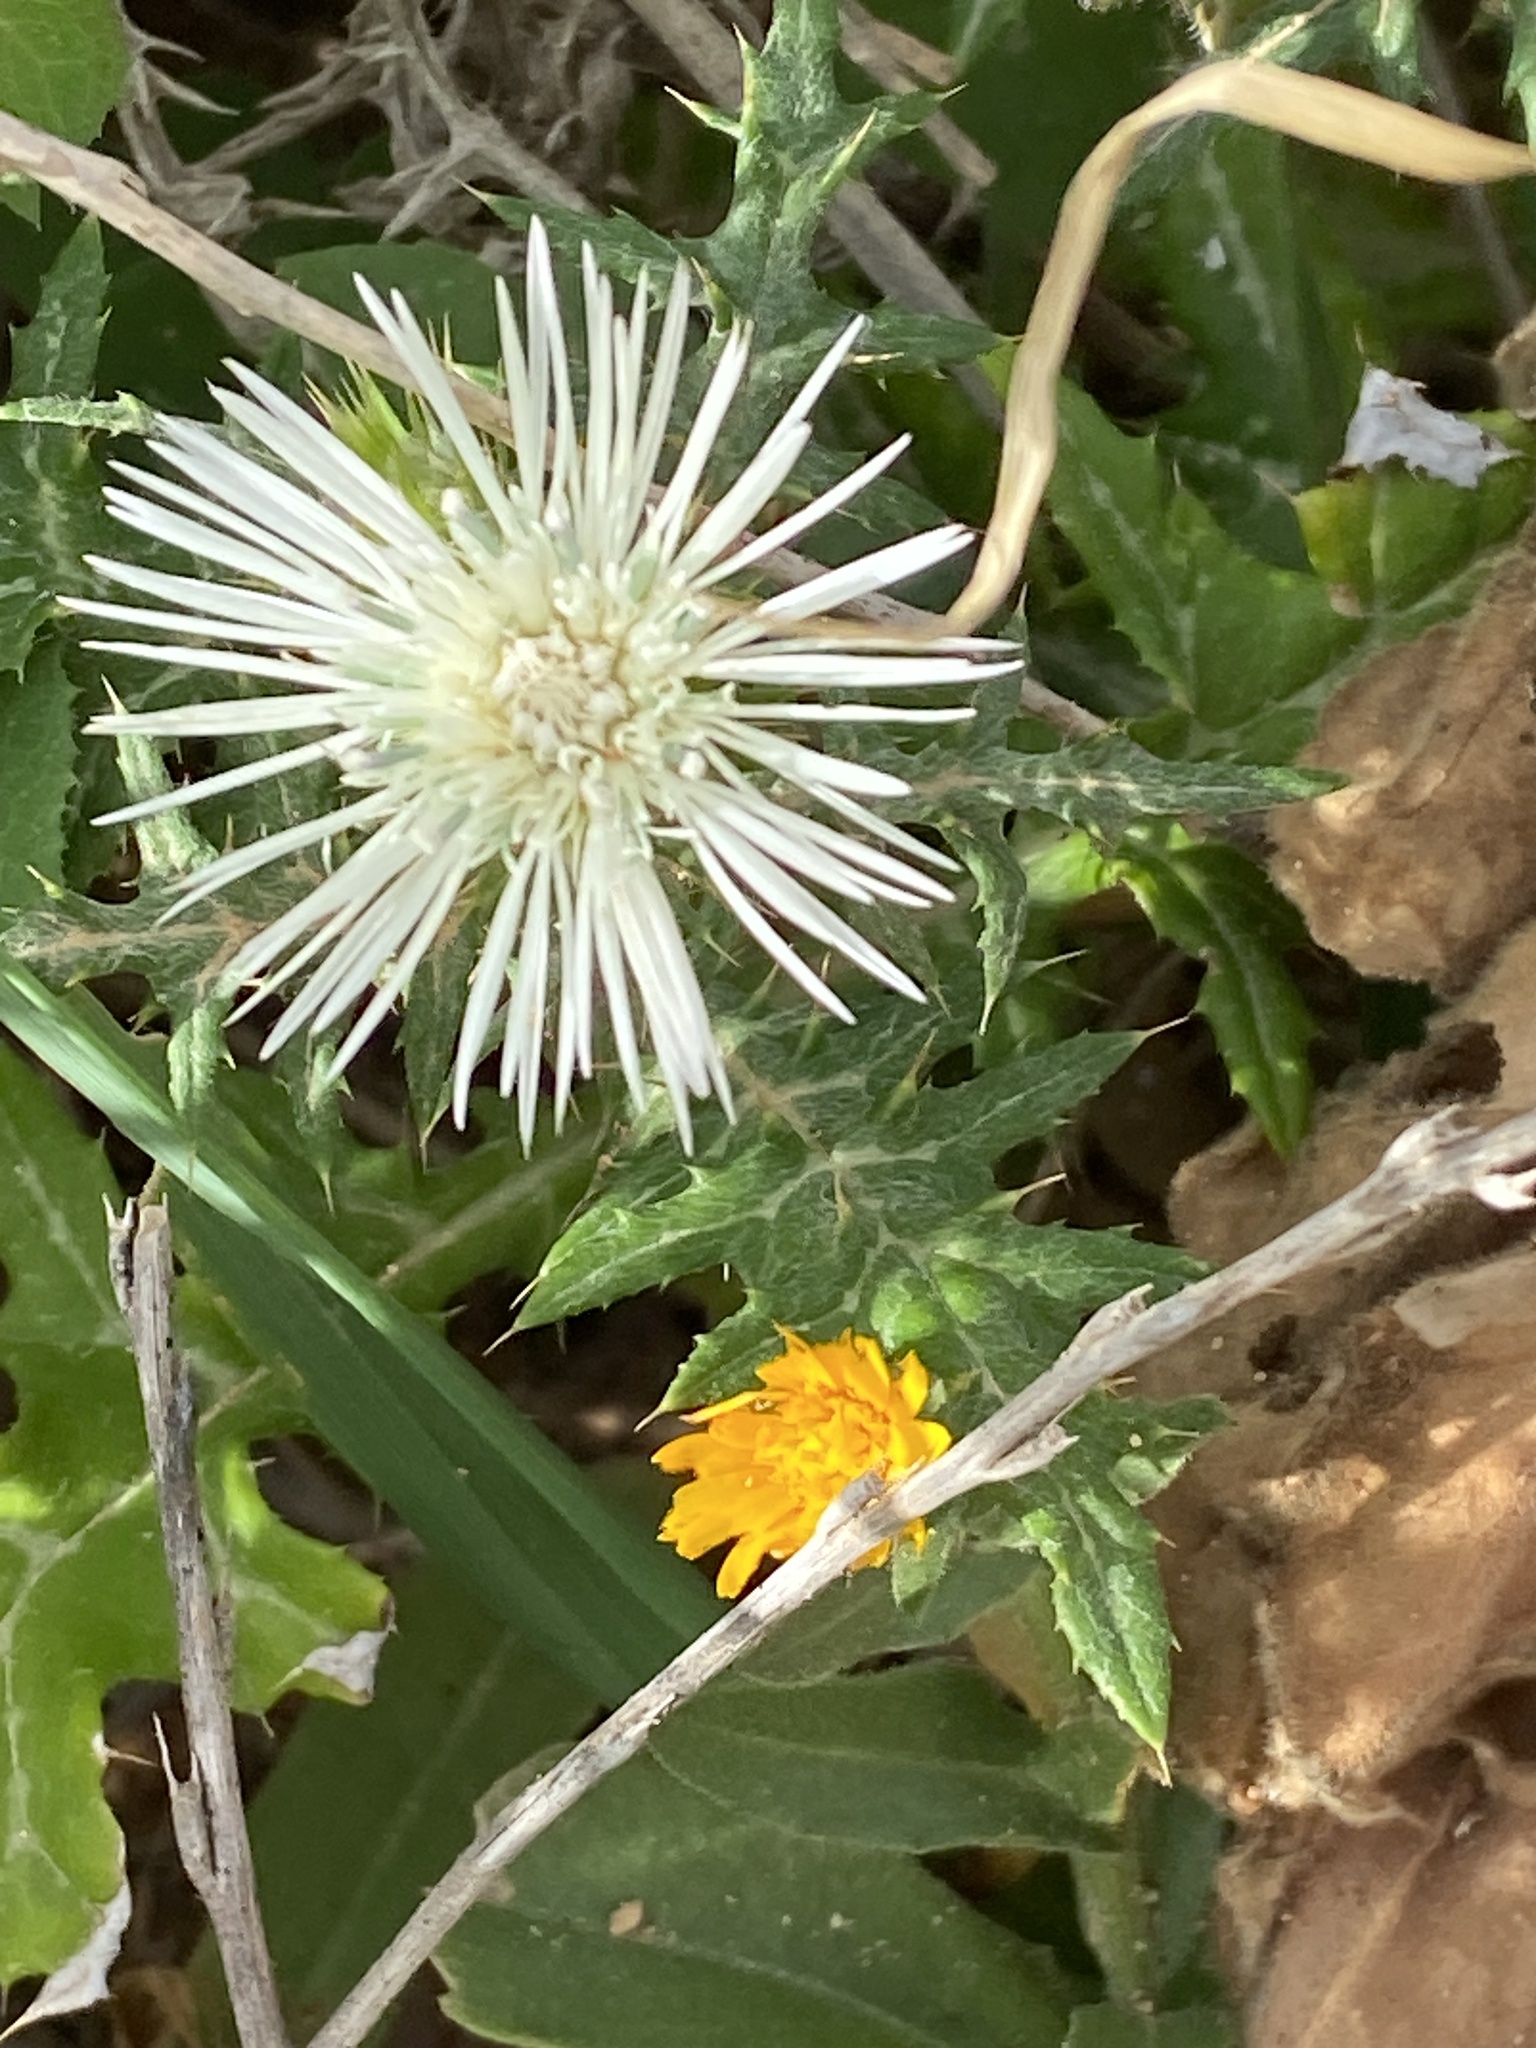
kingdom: Plantae
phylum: Tracheophyta
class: Magnoliopsida
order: Asterales
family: Asteraceae
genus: Galactites
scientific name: Galactites tomentosa
